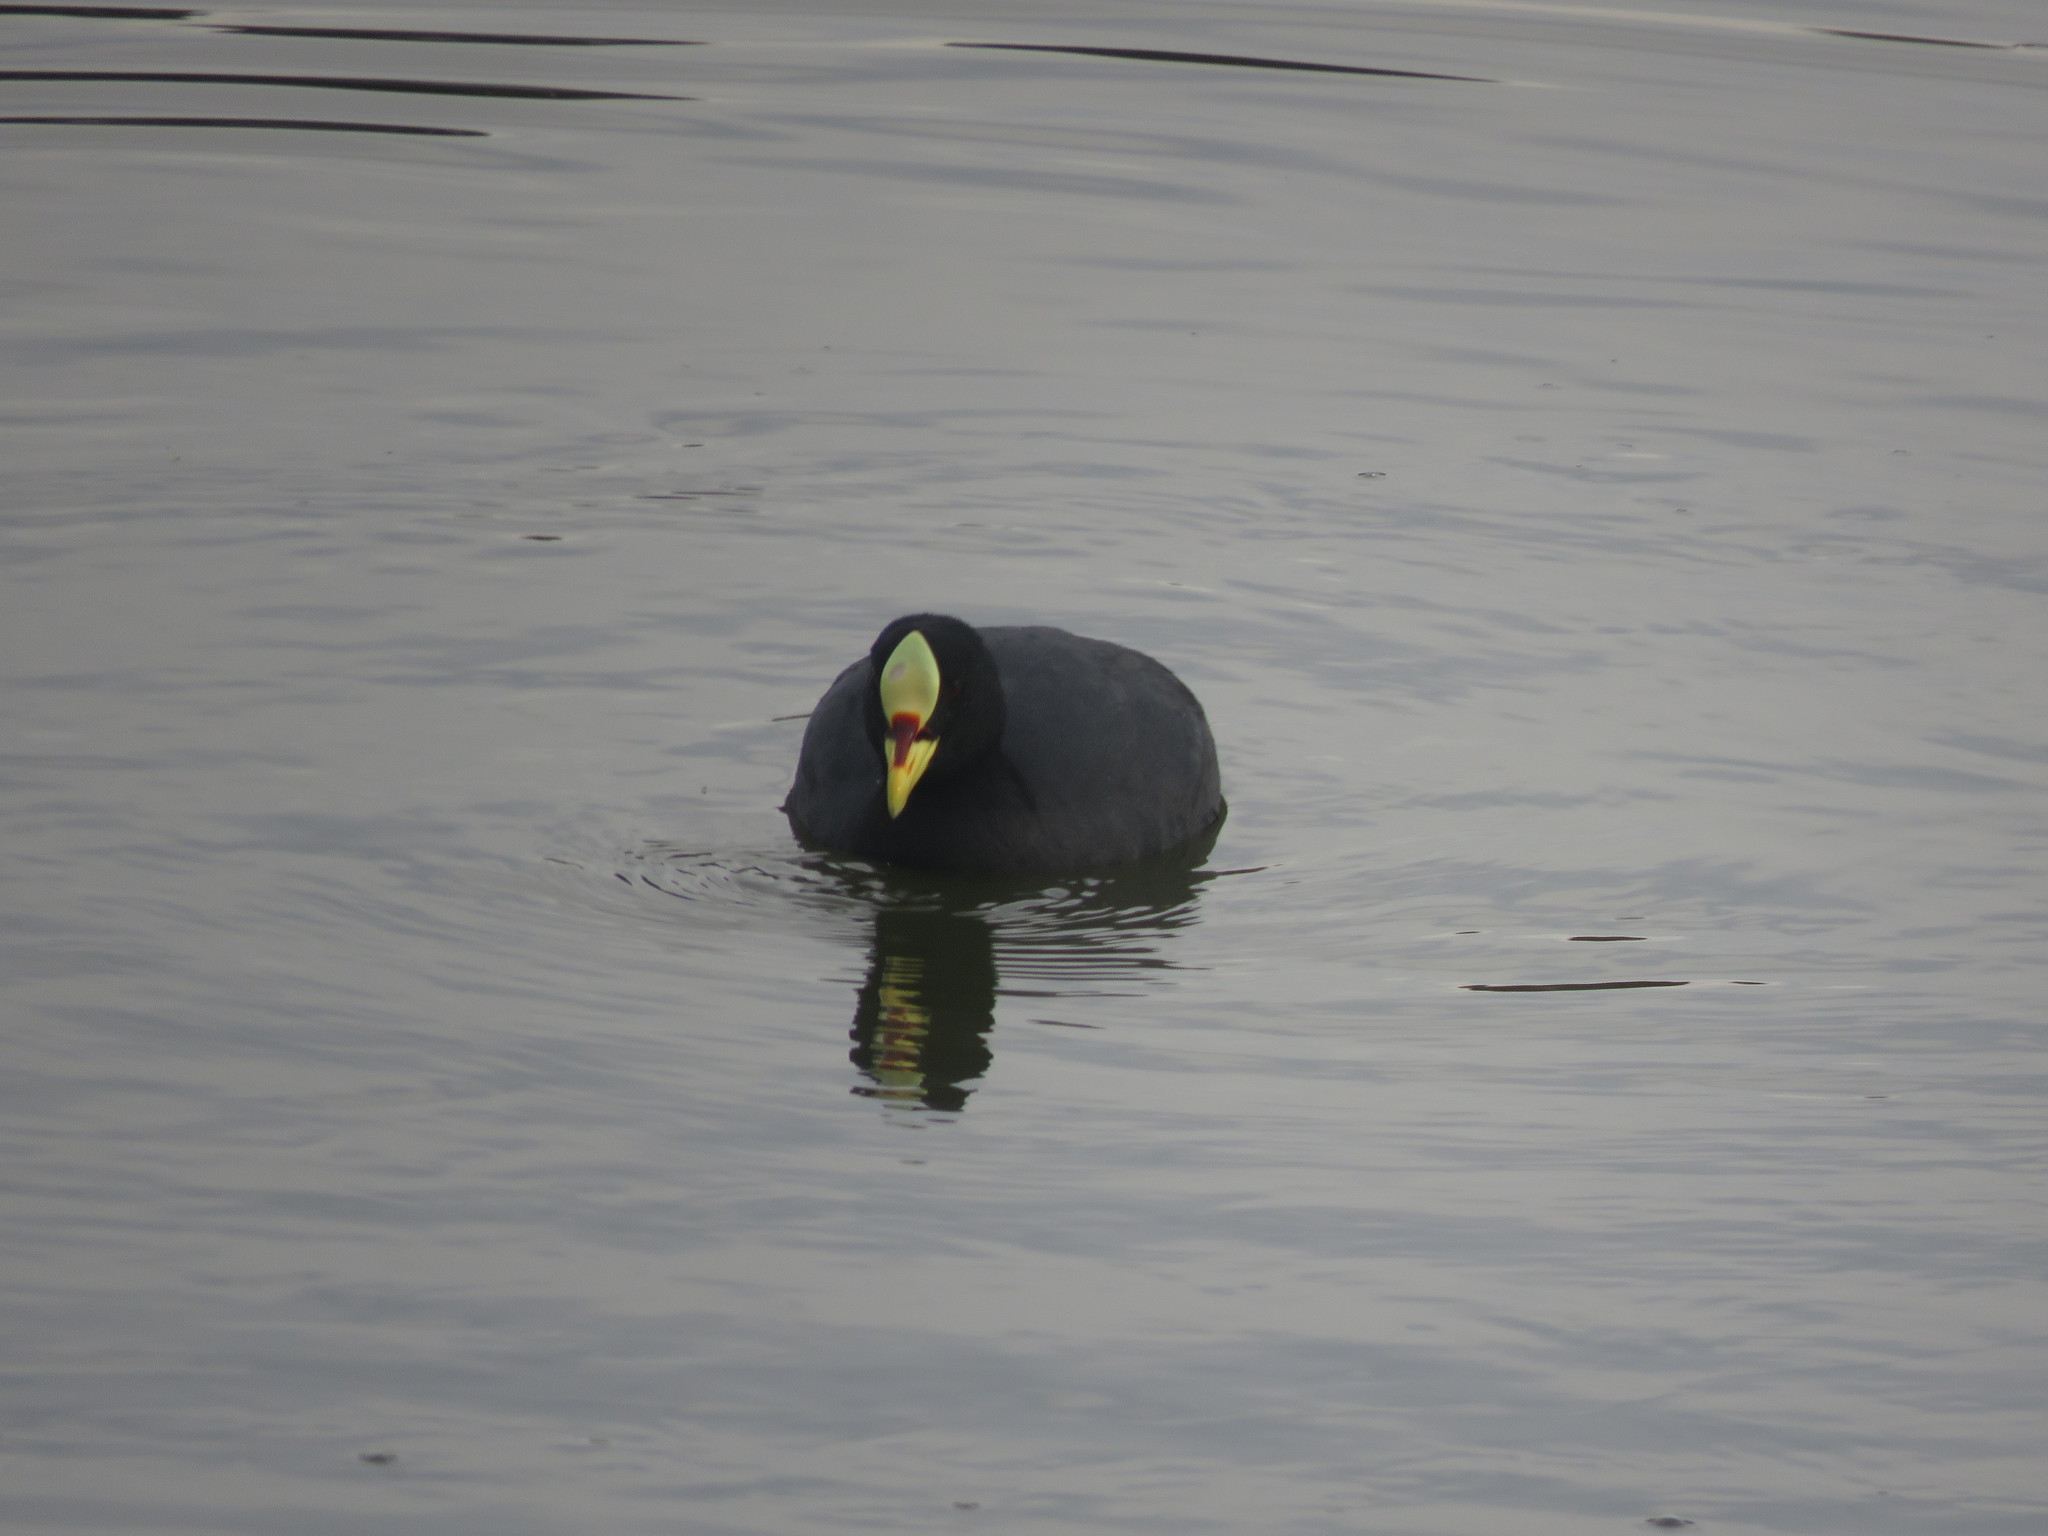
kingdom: Animalia
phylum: Chordata
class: Aves
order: Gruiformes
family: Rallidae
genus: Fulica
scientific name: Fulica armillata
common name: Red-gartered coot
